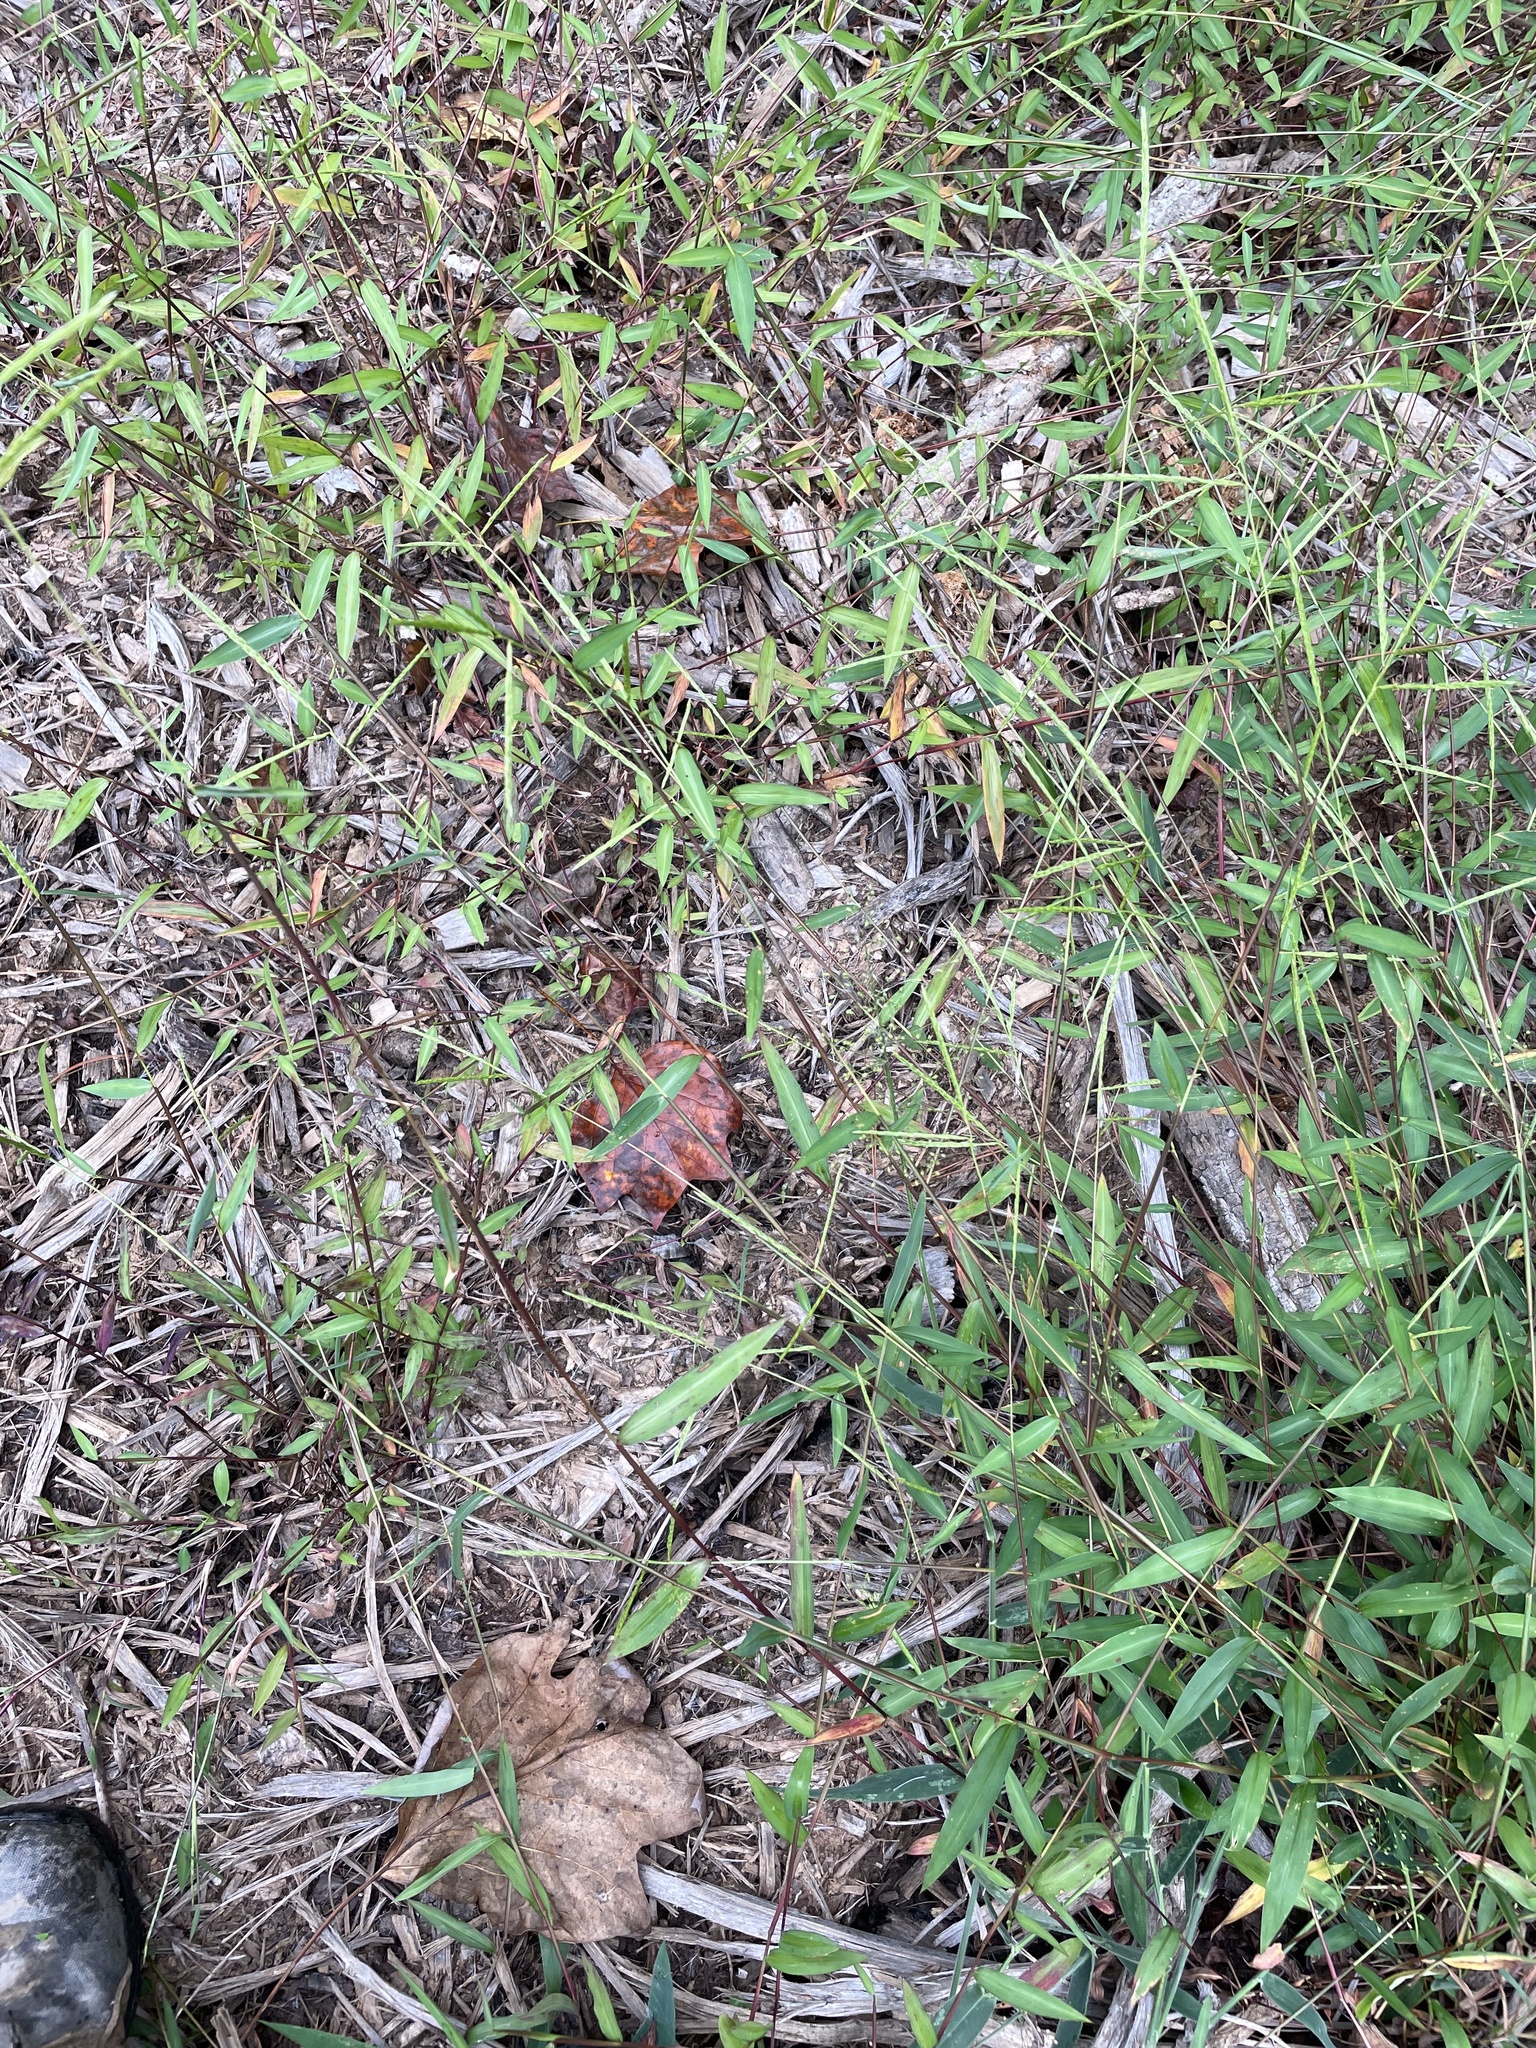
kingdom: Plantae
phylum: Tracheophyta
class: Liliopsida
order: Poales
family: Poaceae
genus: Microstegium
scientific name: Microstegium vimineum
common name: Japanese stiltgrass
